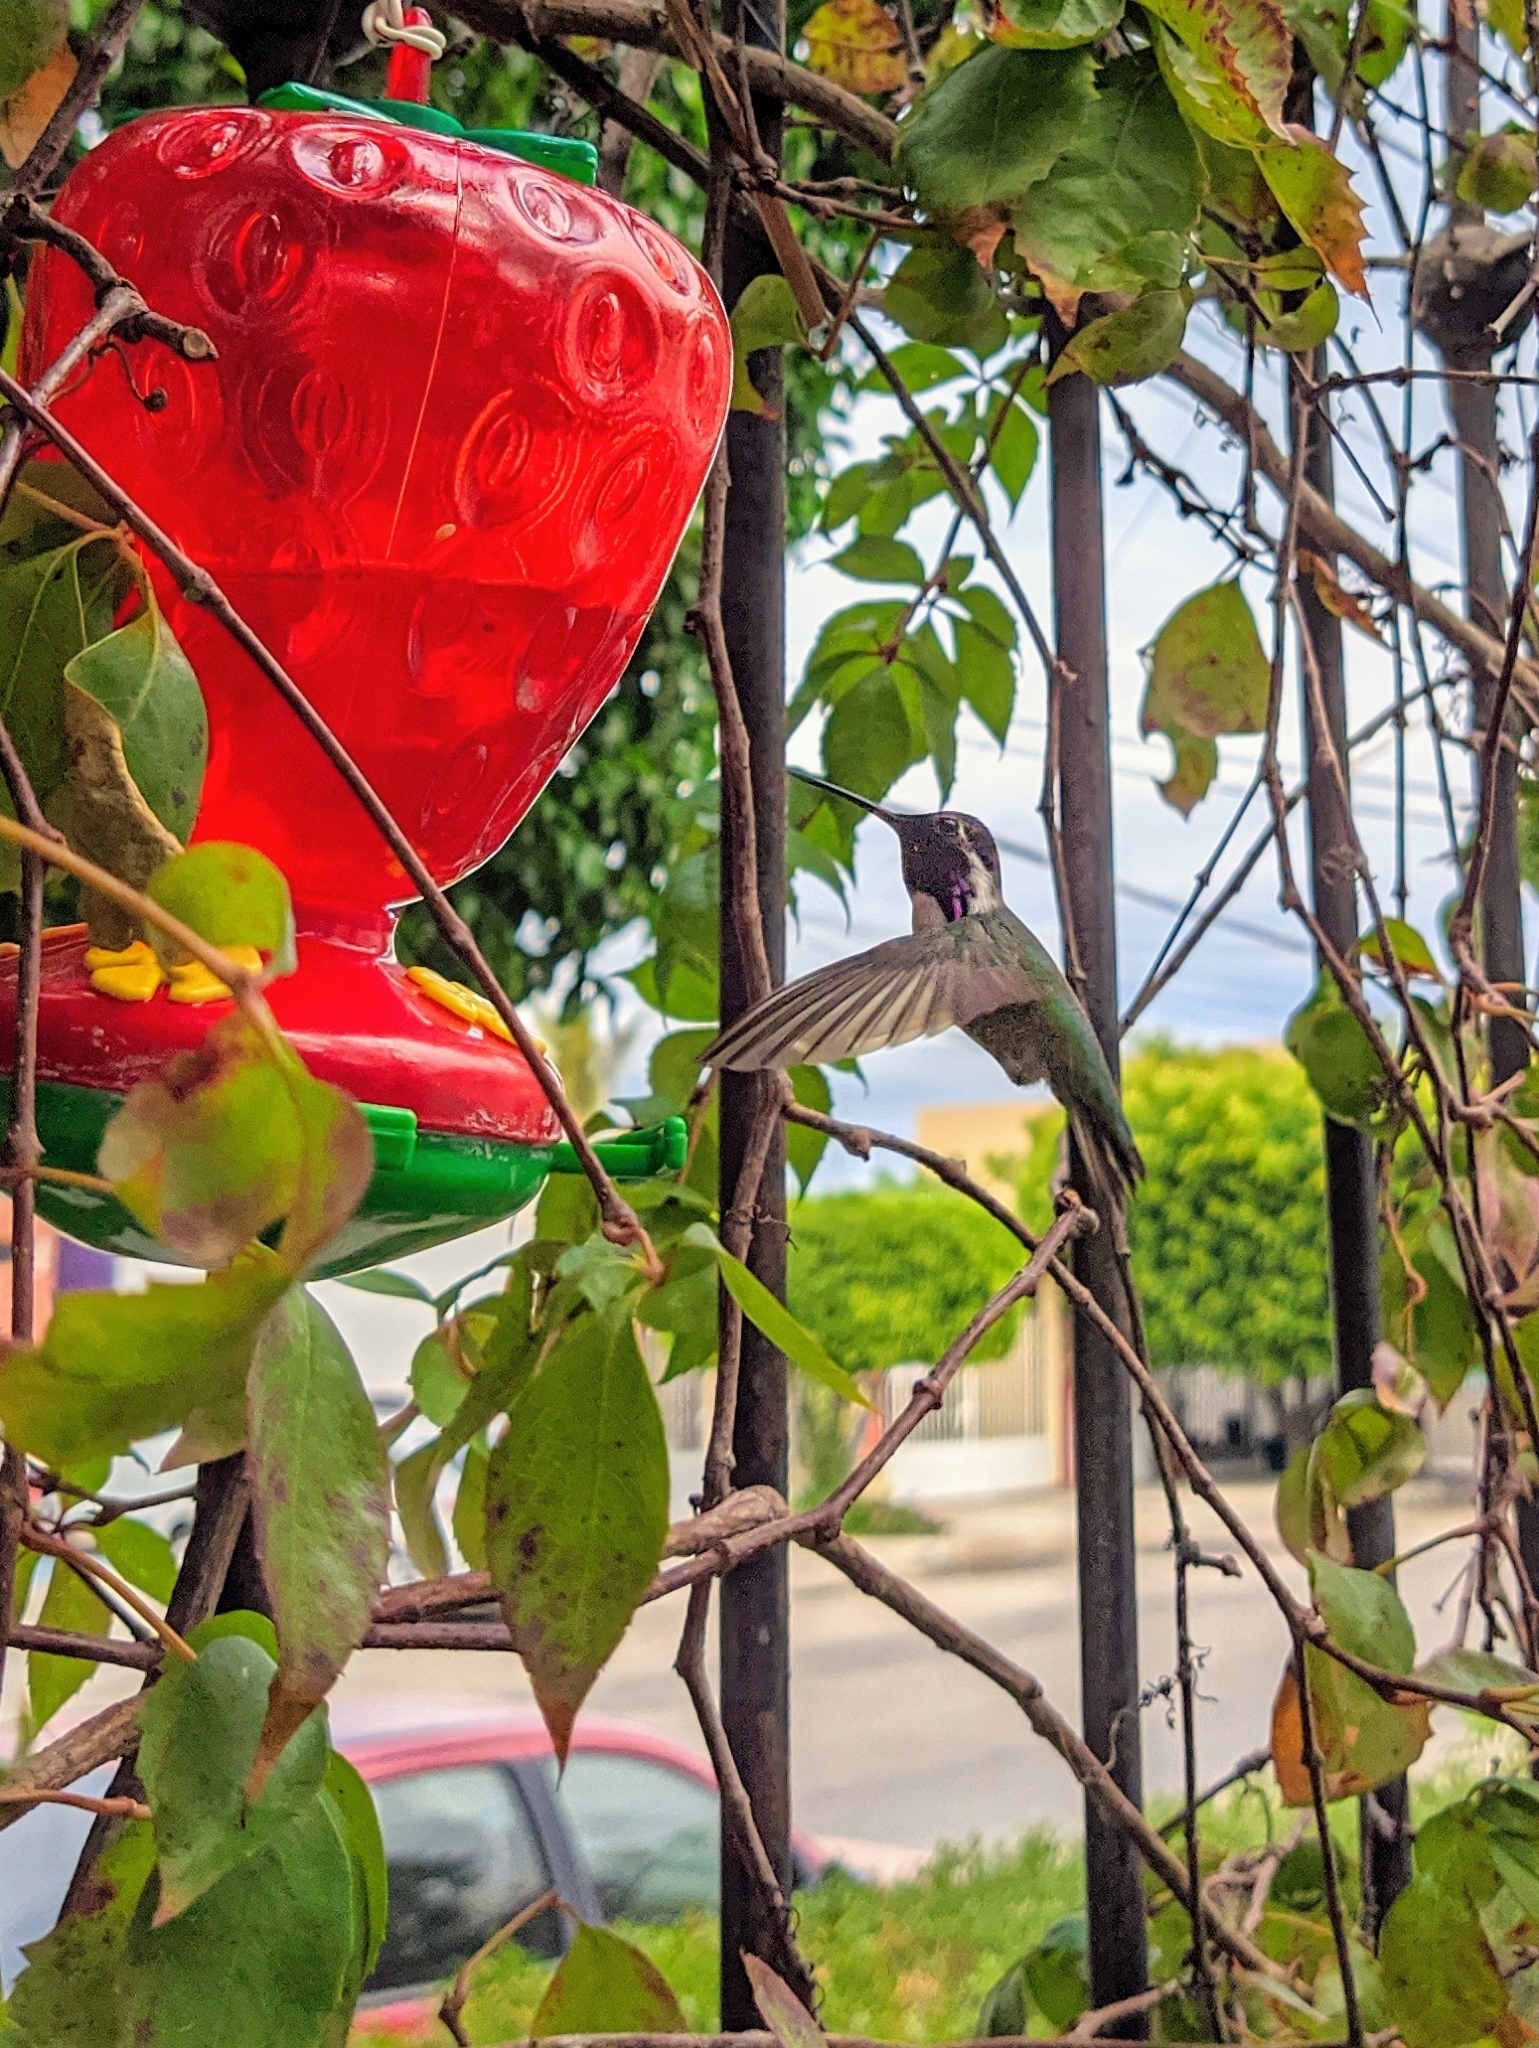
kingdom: Animalia
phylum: Chordata
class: Aves
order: Apodiformes
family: Trochilidae
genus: Calypte
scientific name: Calypte costae
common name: Costa's hummingbird
